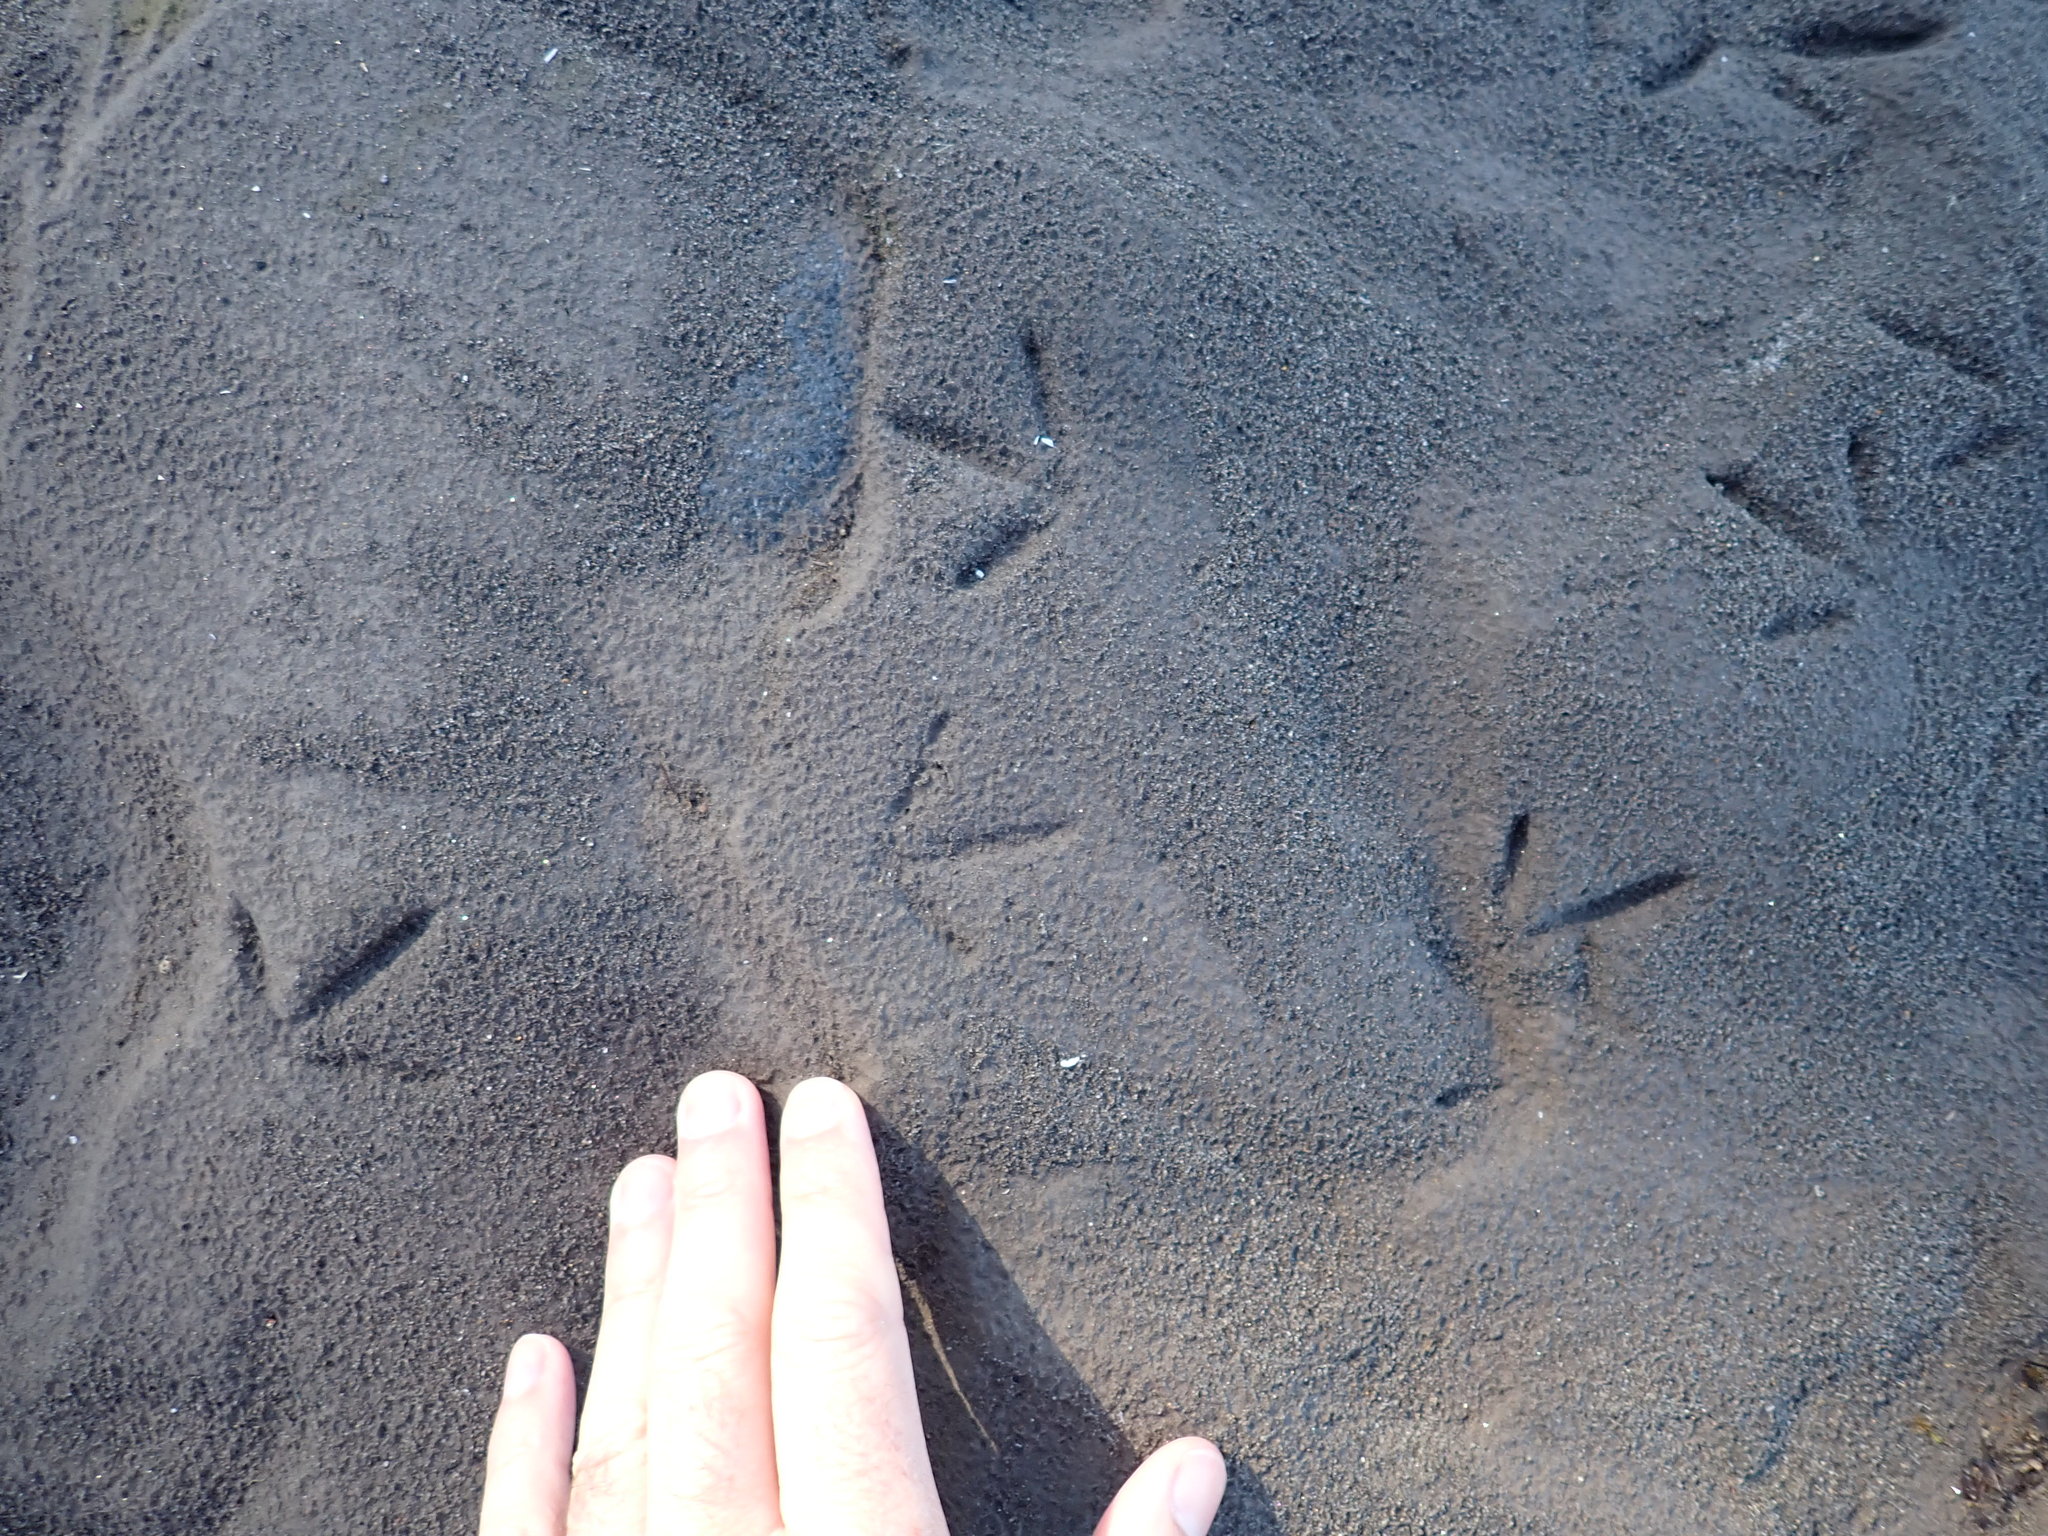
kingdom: Animalia
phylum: Chordata
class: Aves
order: Charadriiformes
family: Recurvirostridae
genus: Himantopus
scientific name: Himantopus leucocephalus
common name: White-headed stilt
